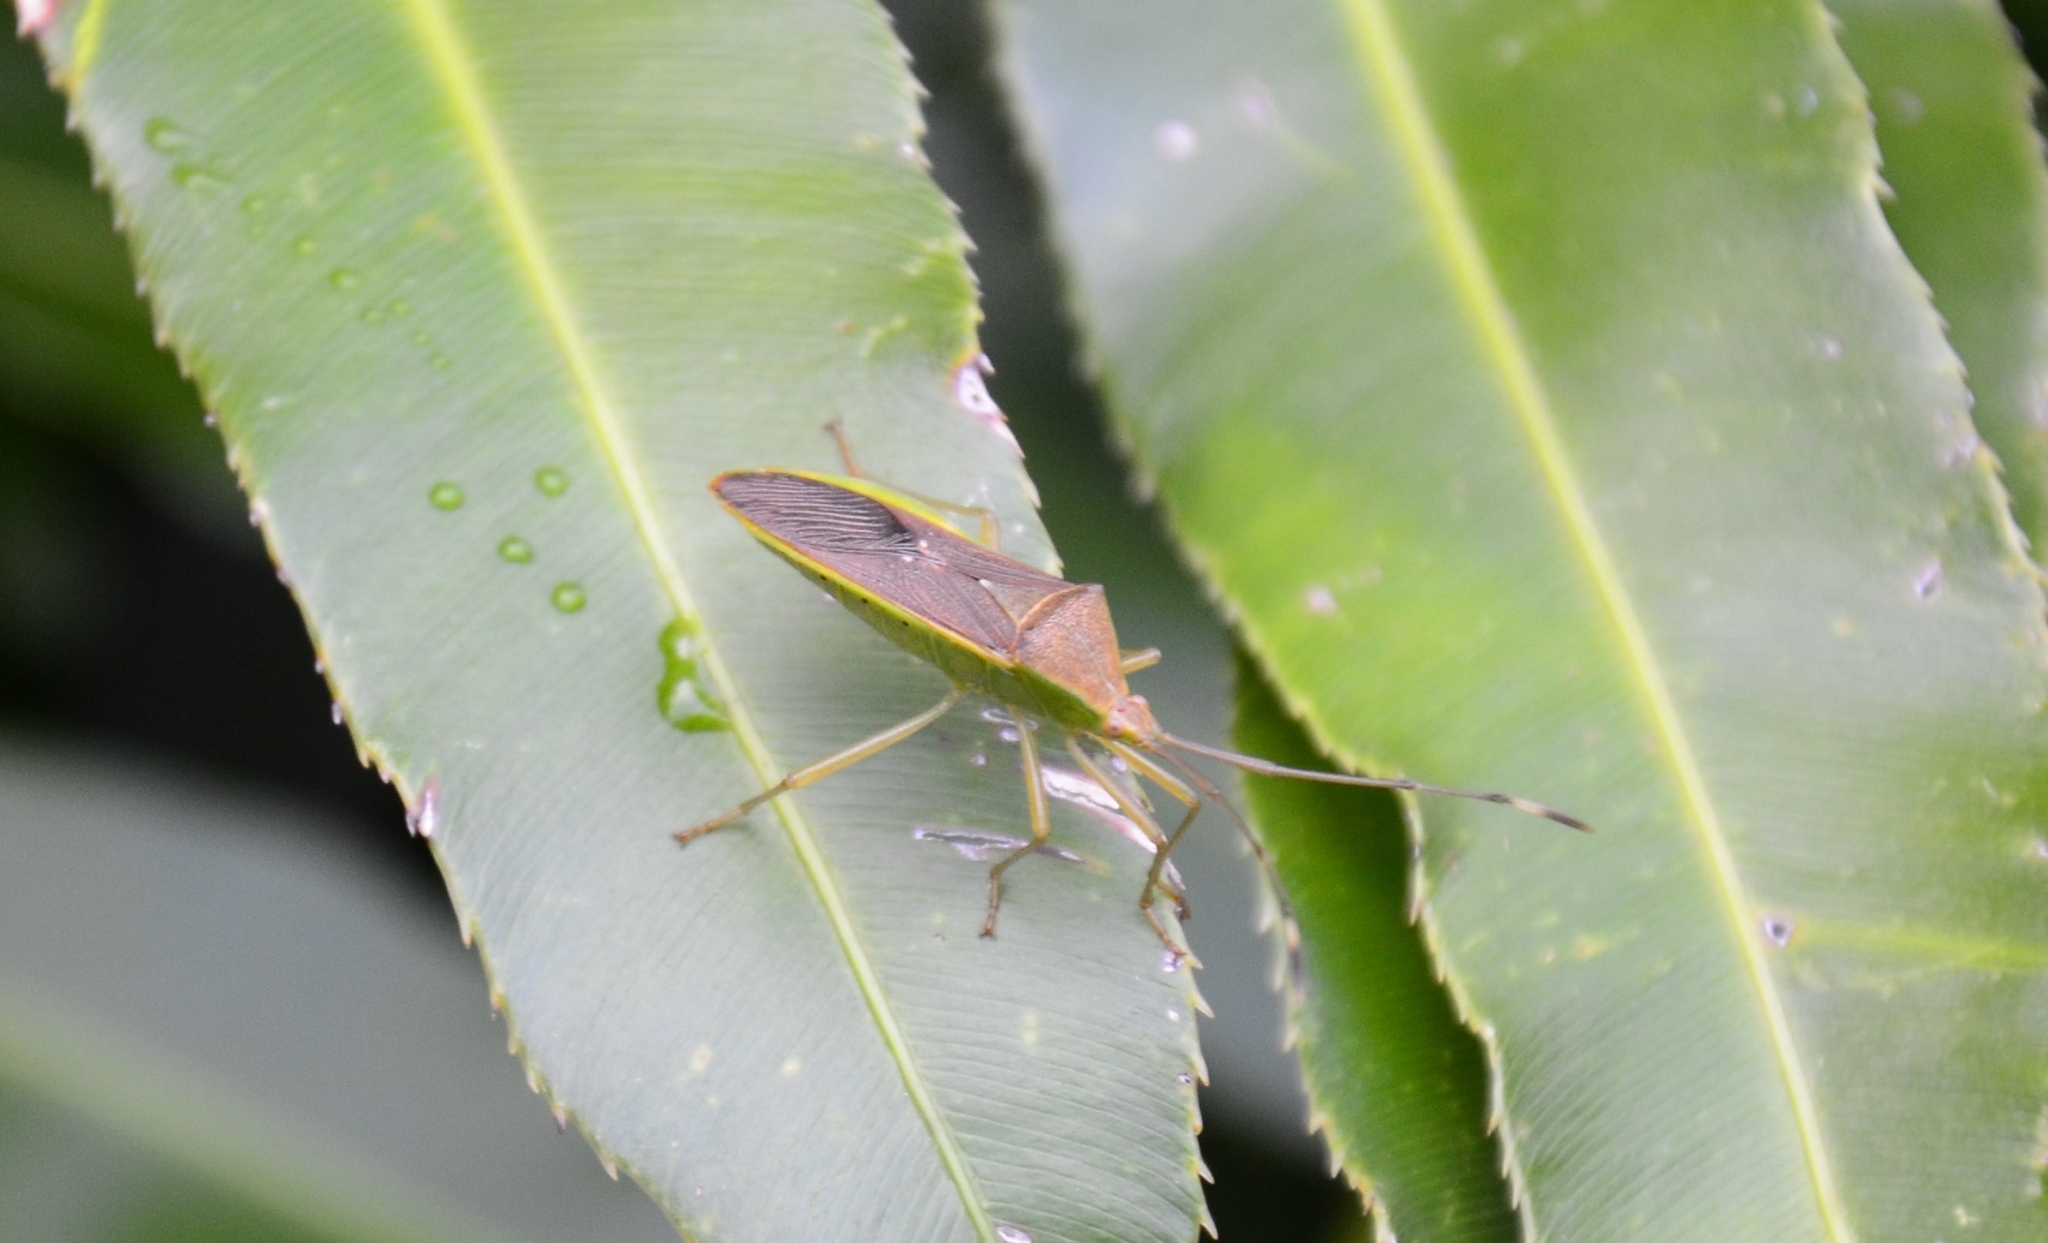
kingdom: Animalia
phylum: Arthropoda
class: Insecta
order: Hemiptera
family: Coreidae
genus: Homoeocerus
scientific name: Homoeocerus relatus
